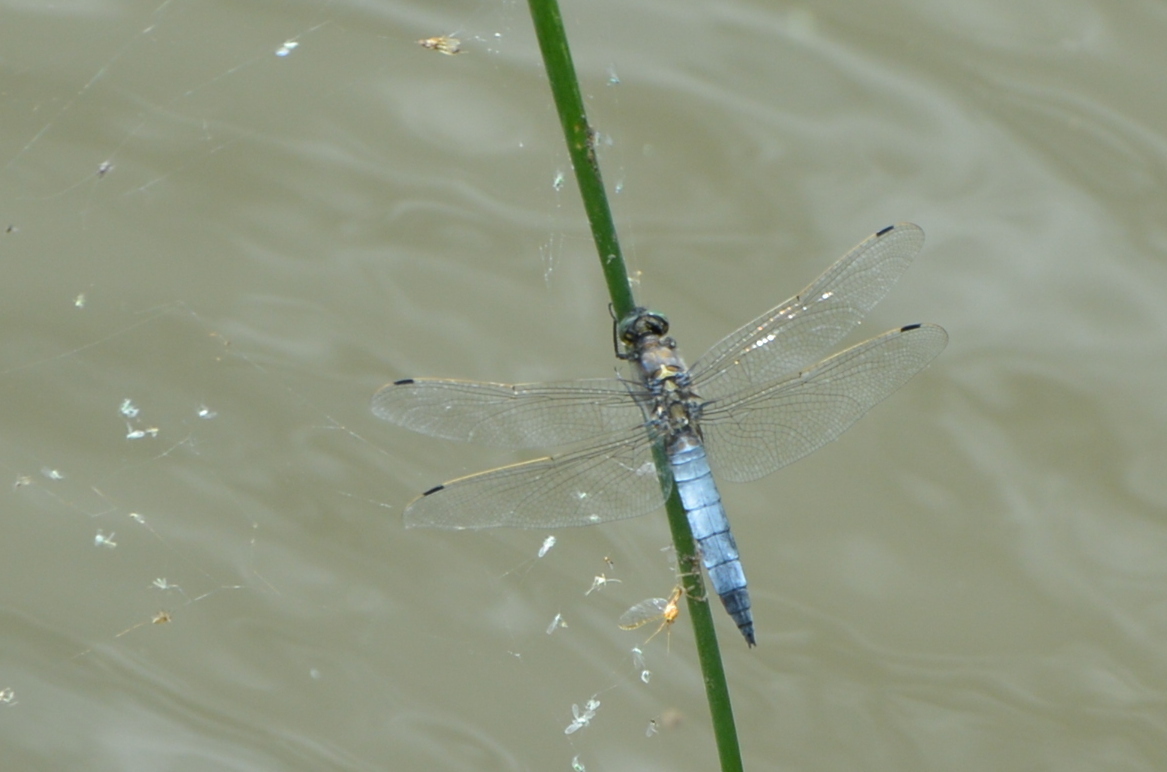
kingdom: Animalia
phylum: Arthropoda
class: Insecta
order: Odonata
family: Libellulidae
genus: Orthetrum
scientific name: Orthetrum cancellatum
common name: Black-tailed skimmer
